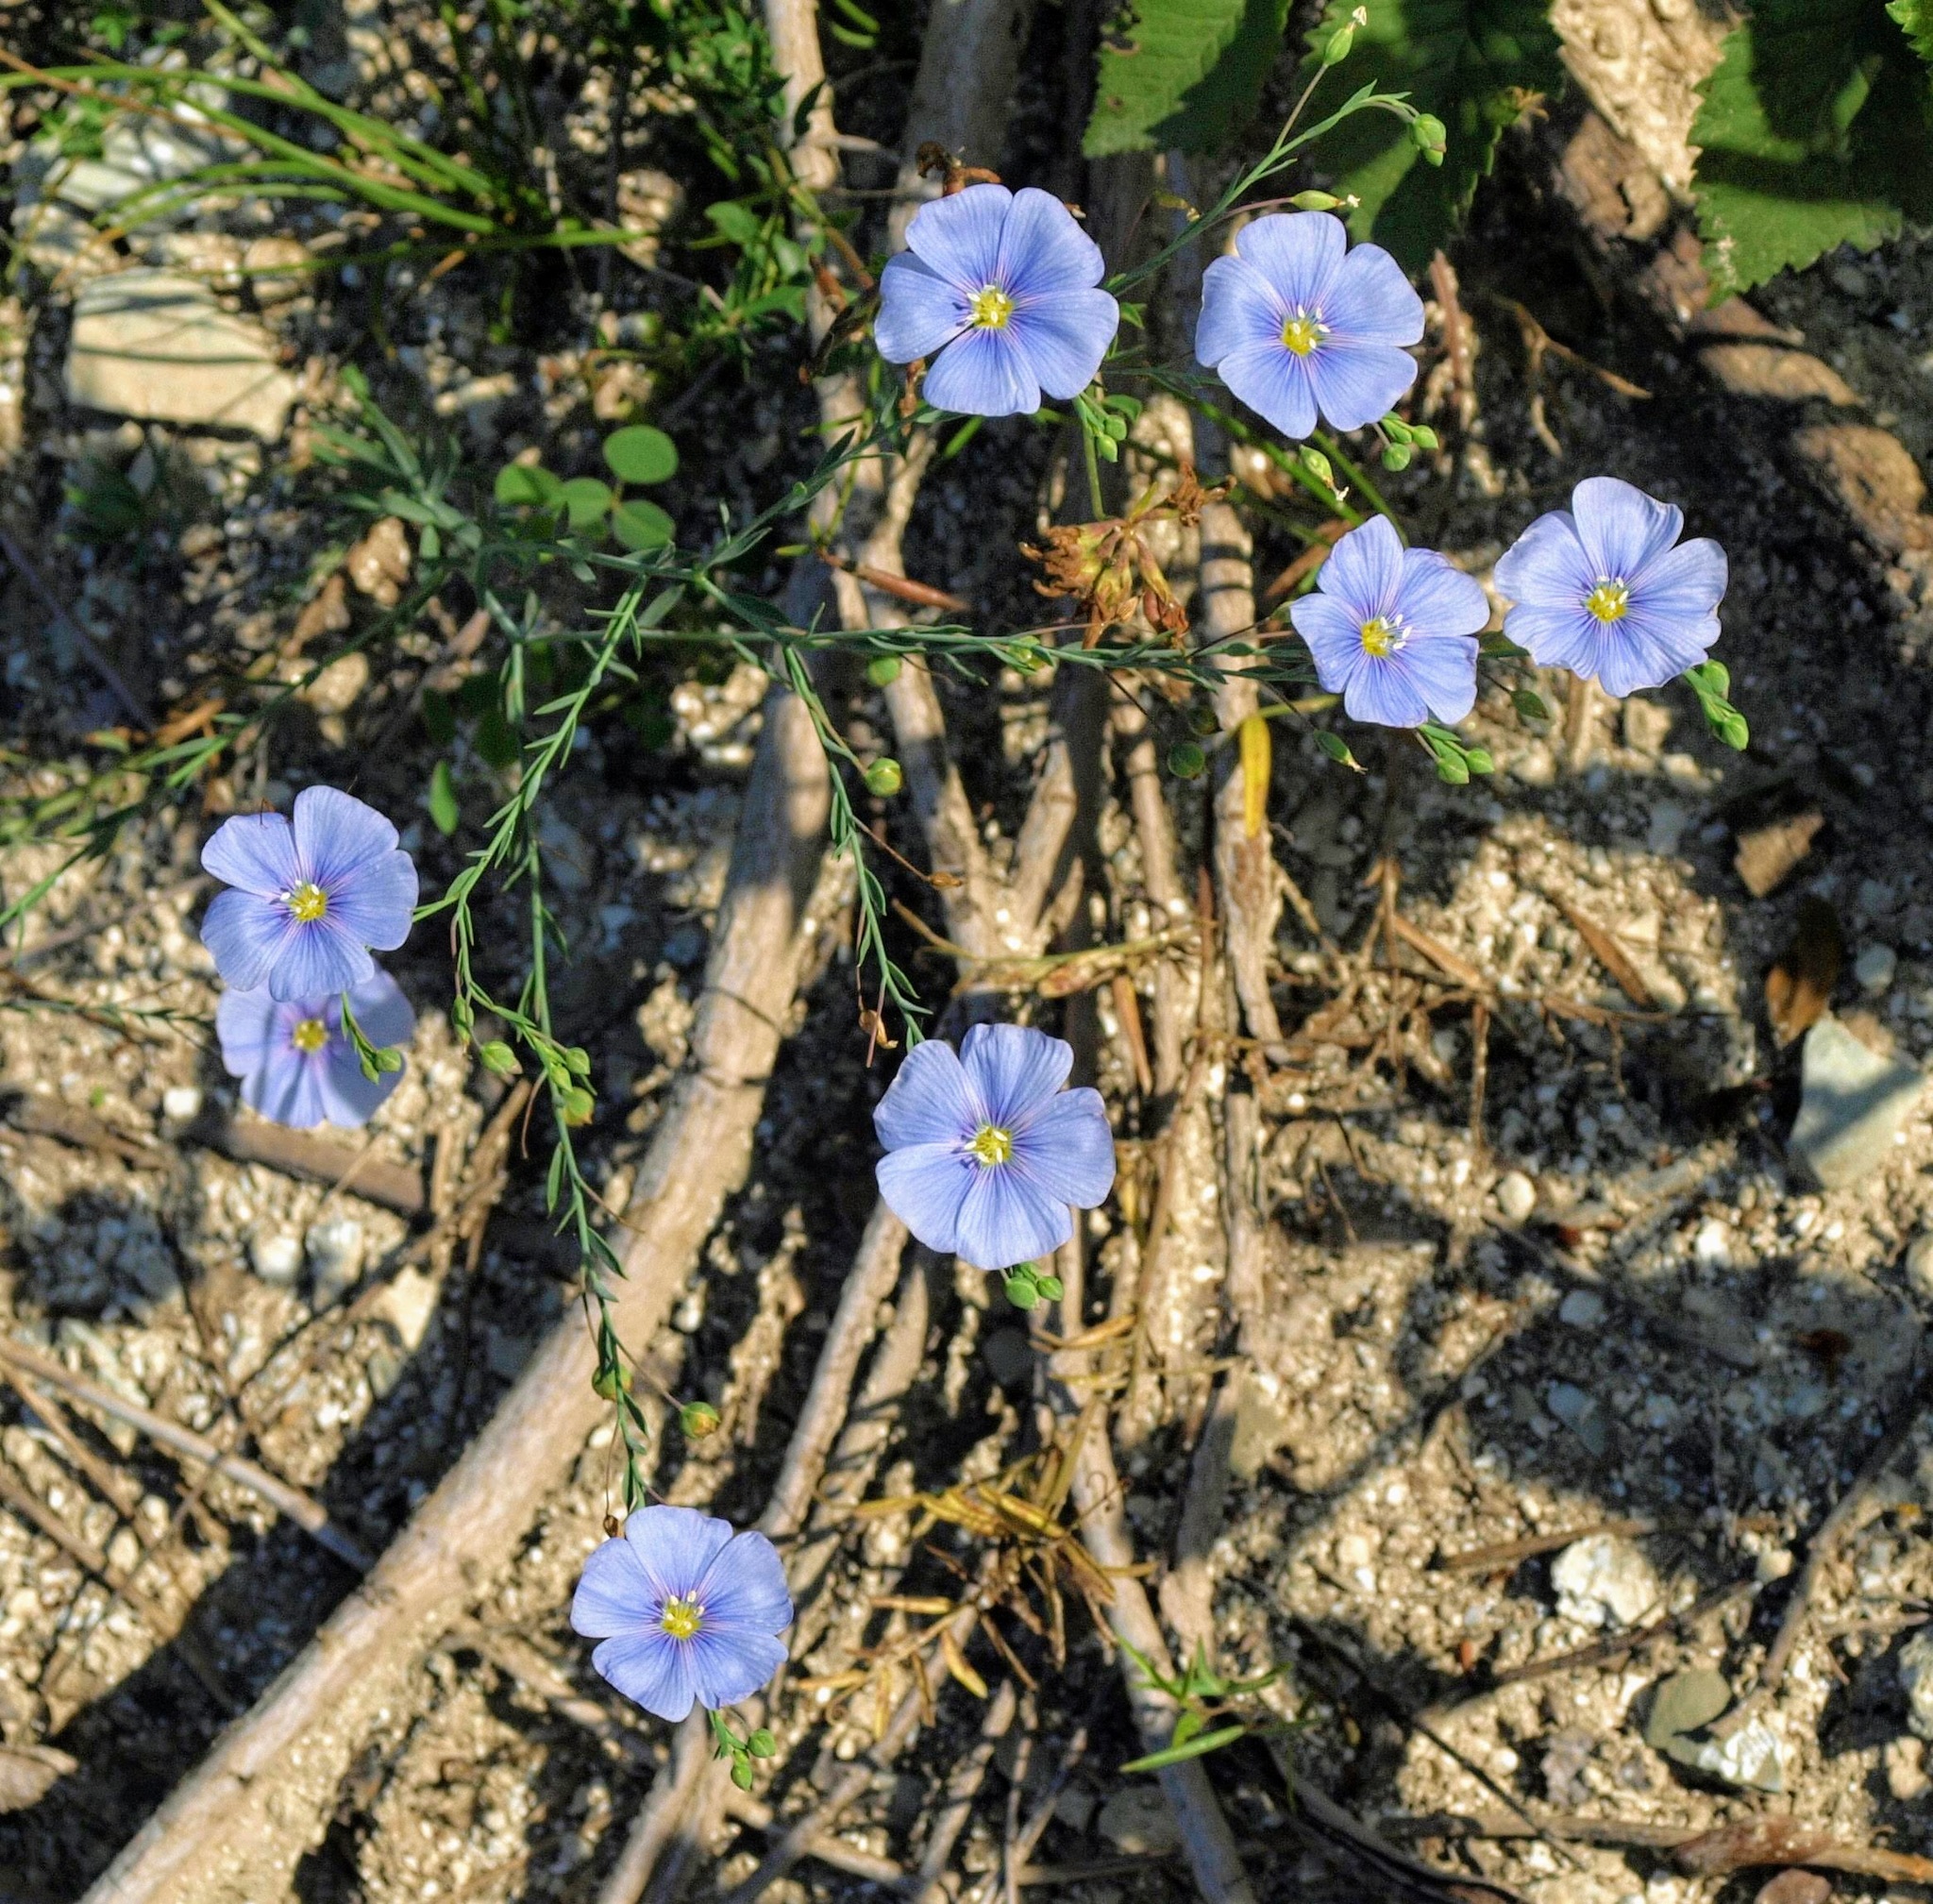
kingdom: Plantae
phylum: Tracheophyta
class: Magnoliopsida
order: Malpighiales
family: Linaceae
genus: Linum
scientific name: Linum austriacum
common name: Austrian flax
